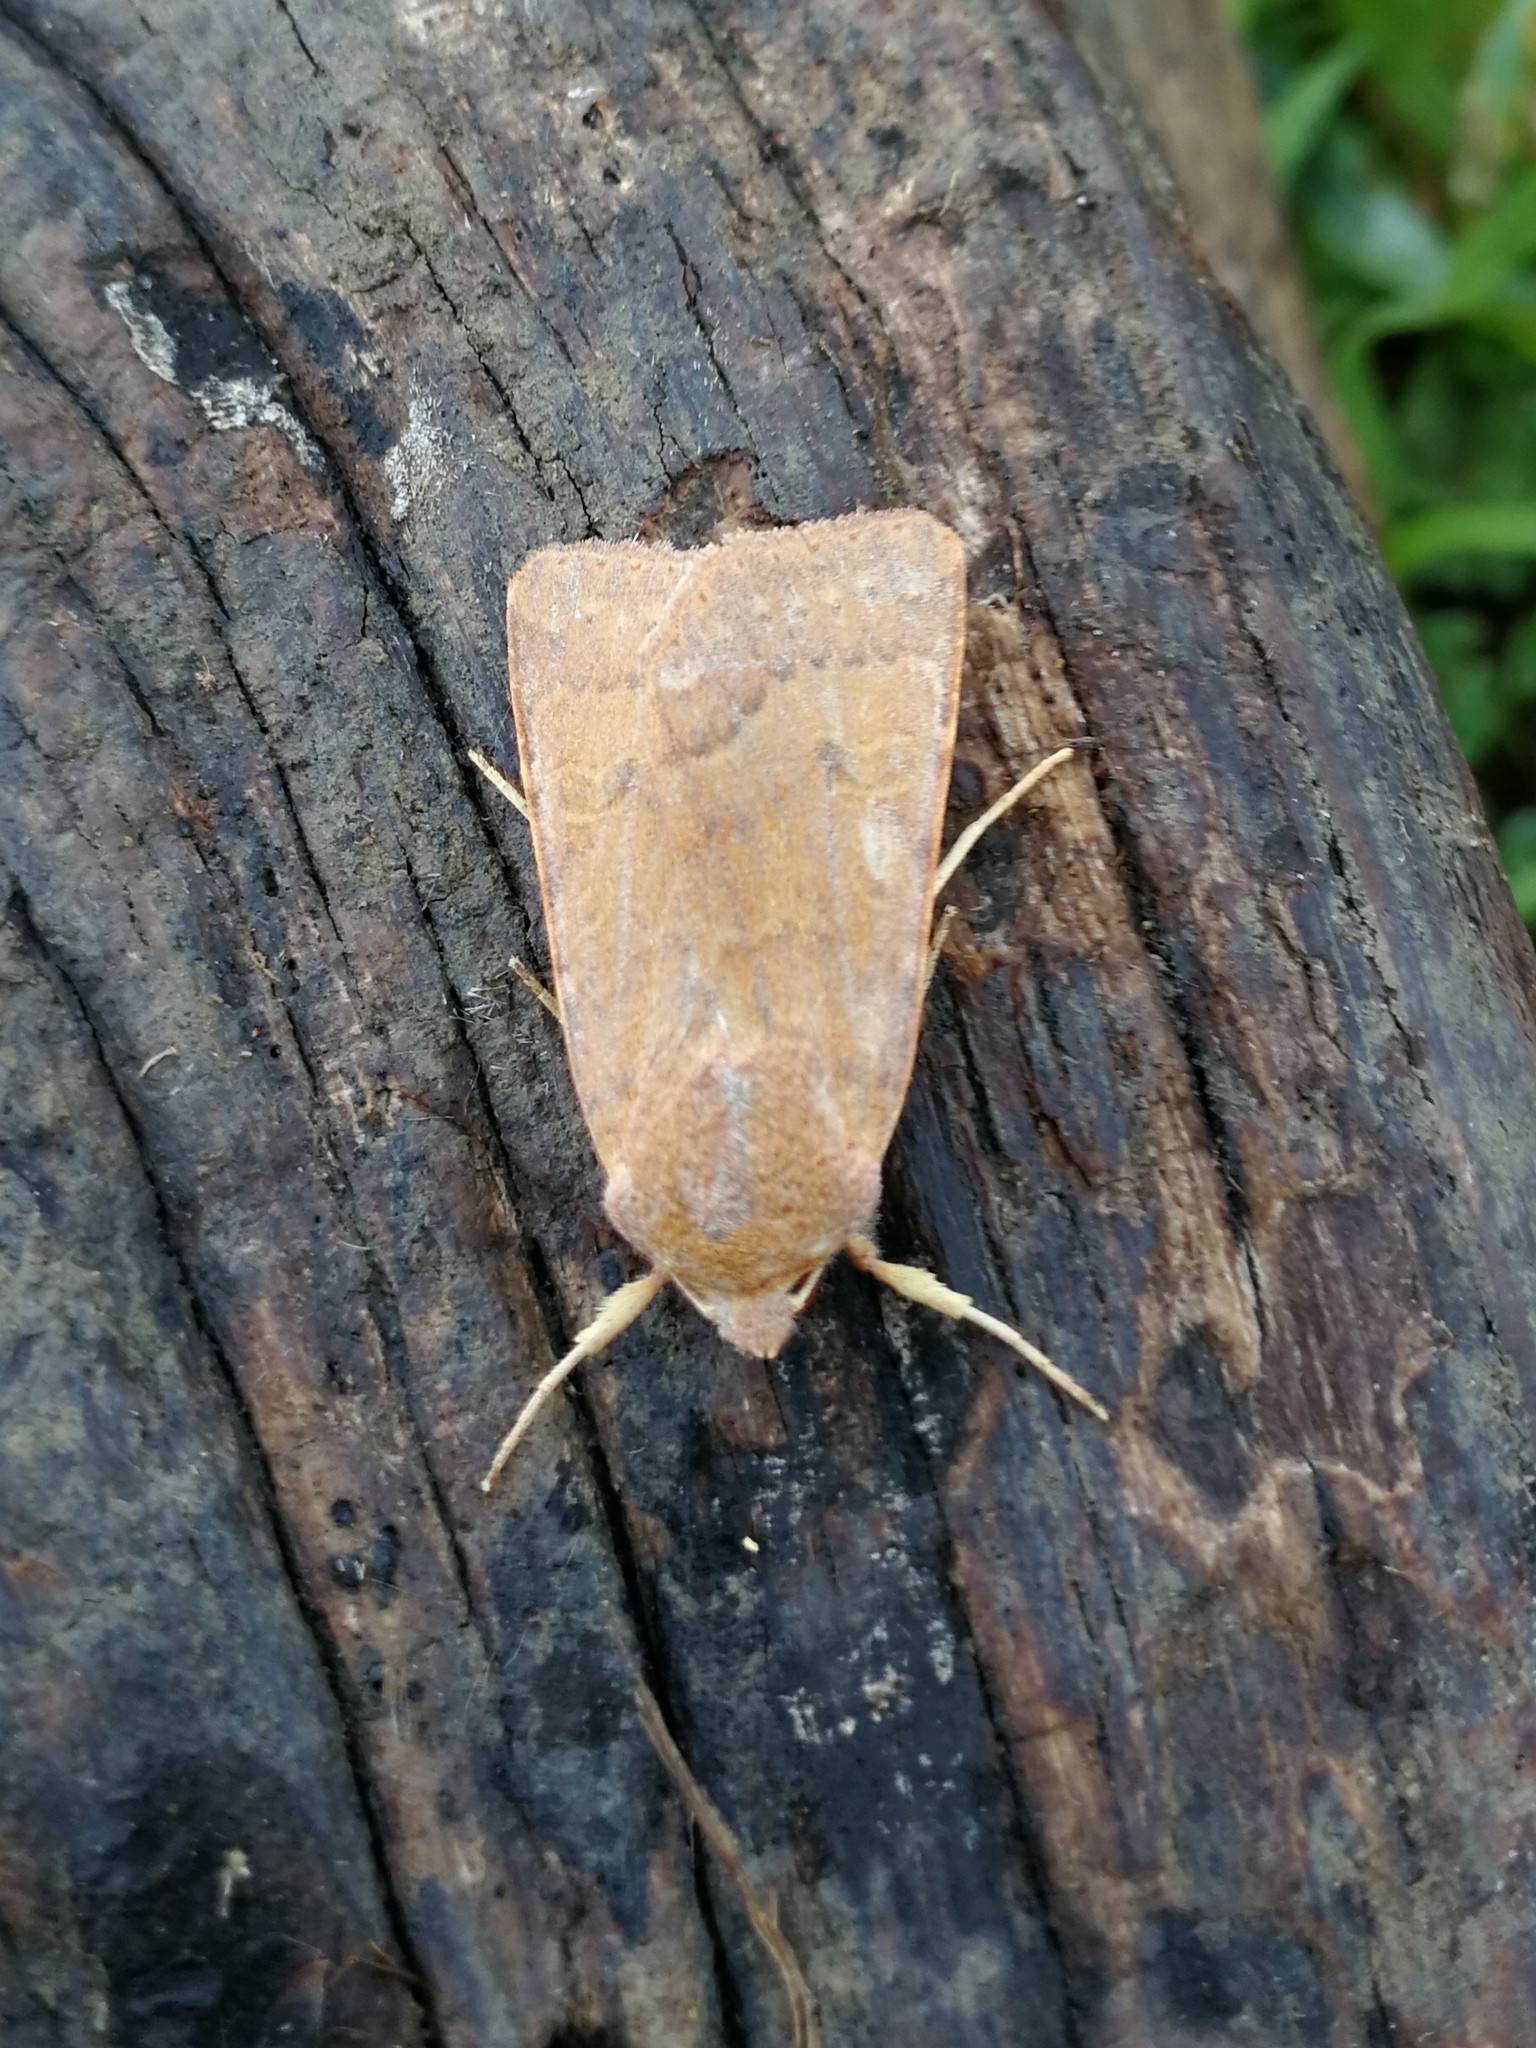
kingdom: Animalia
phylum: Arthropoda
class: Insecta
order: Lepidoptera
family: Noctuidae
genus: Agrochola
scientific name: Agrochola helvola
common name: Flounced chestnut
